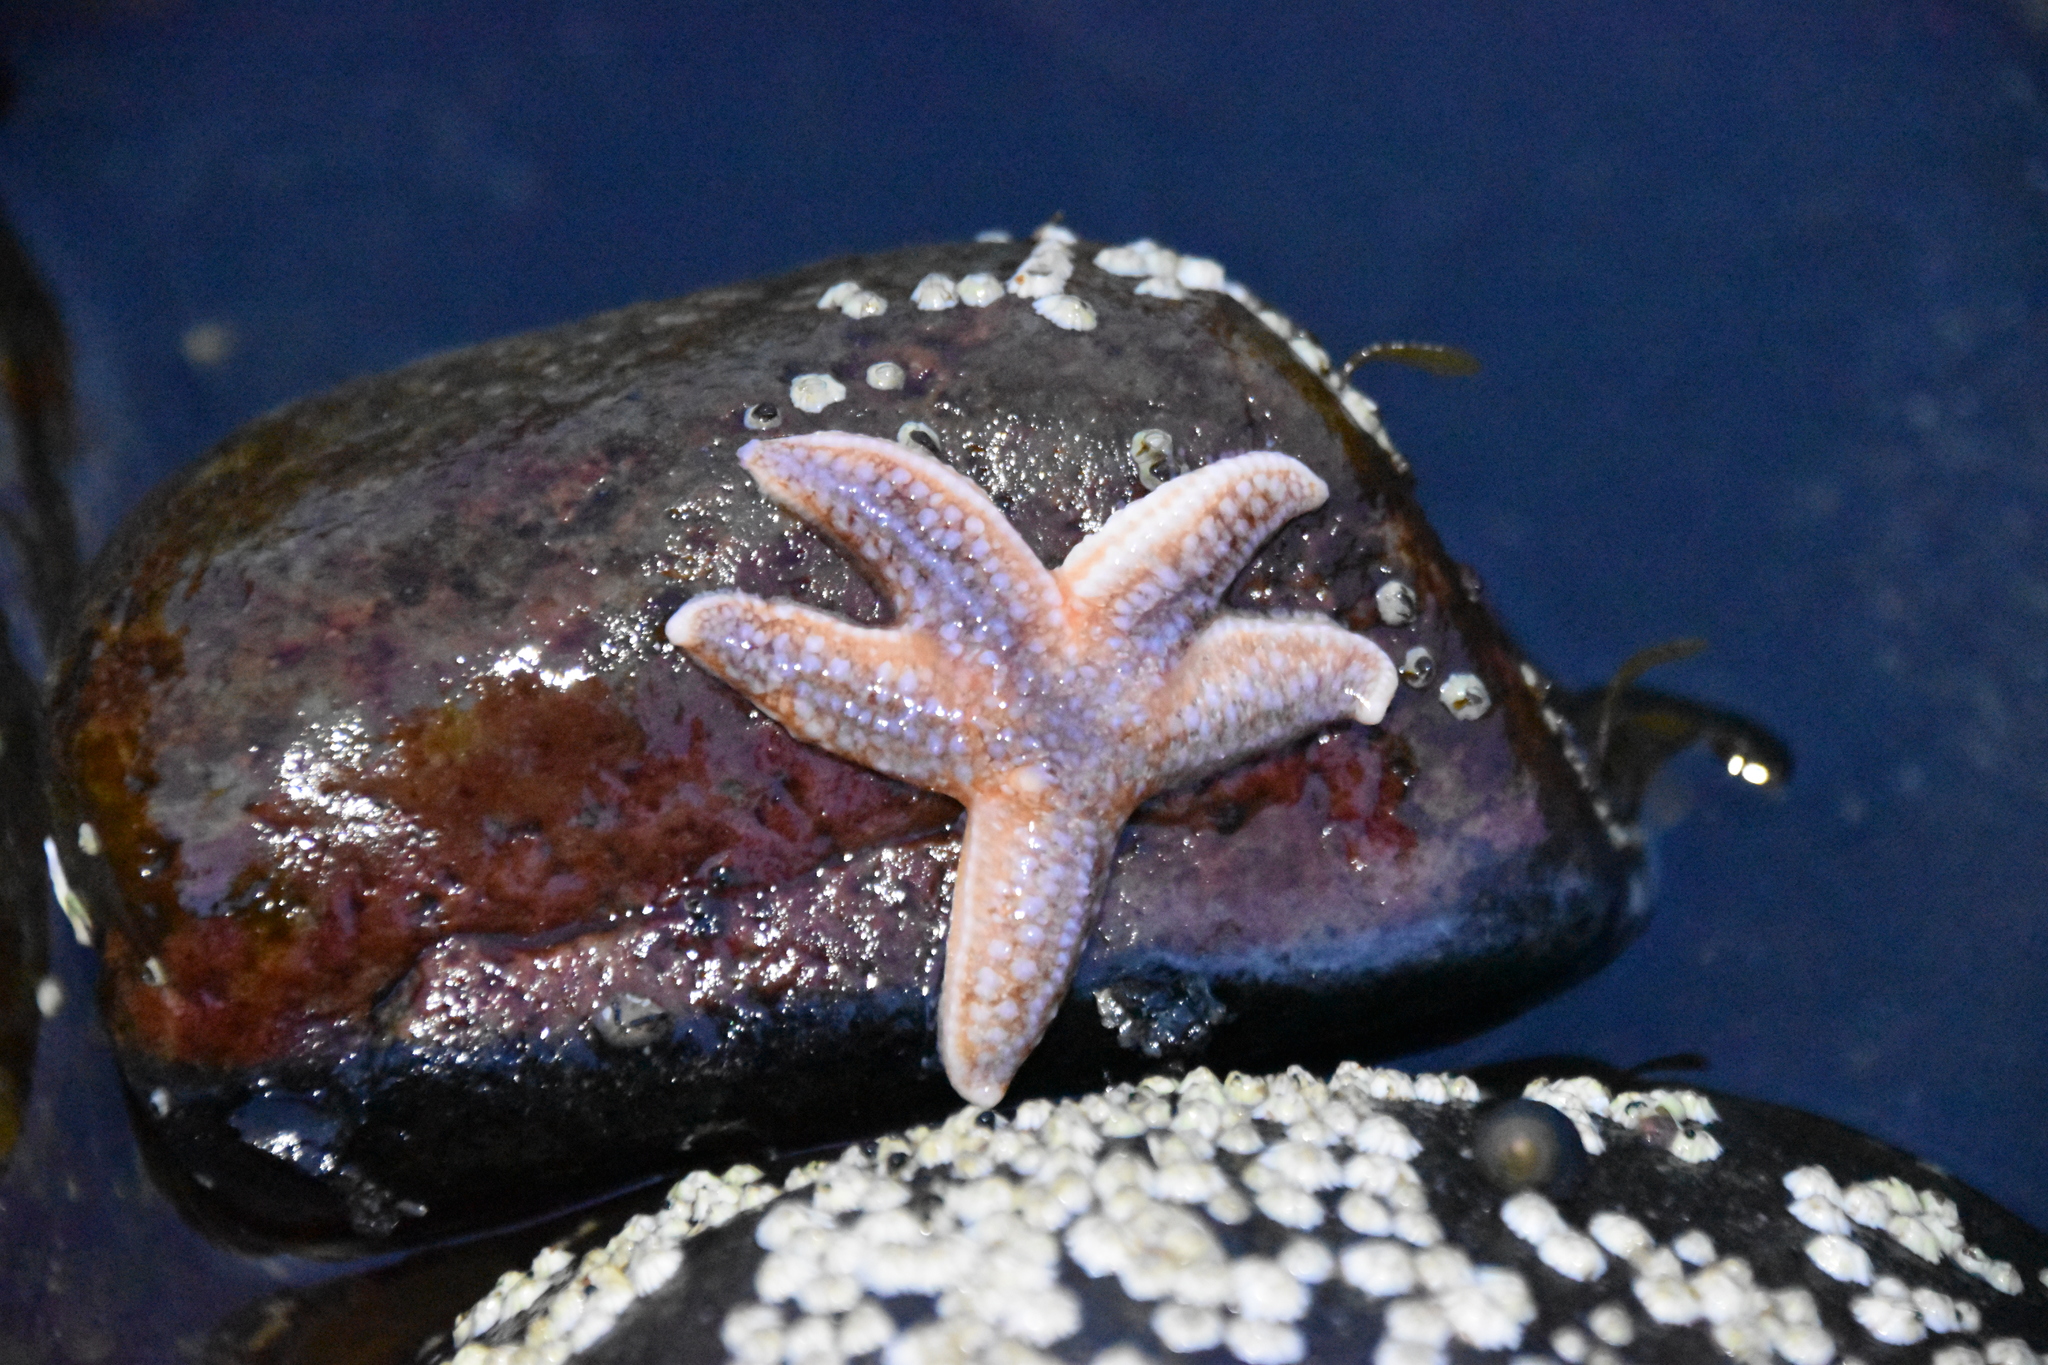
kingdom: Animalia
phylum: Echinodermata
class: Asteroidea
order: Forcipulatida
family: Asteriidae
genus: Asterias
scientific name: Asterias rubens
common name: Common starfish
